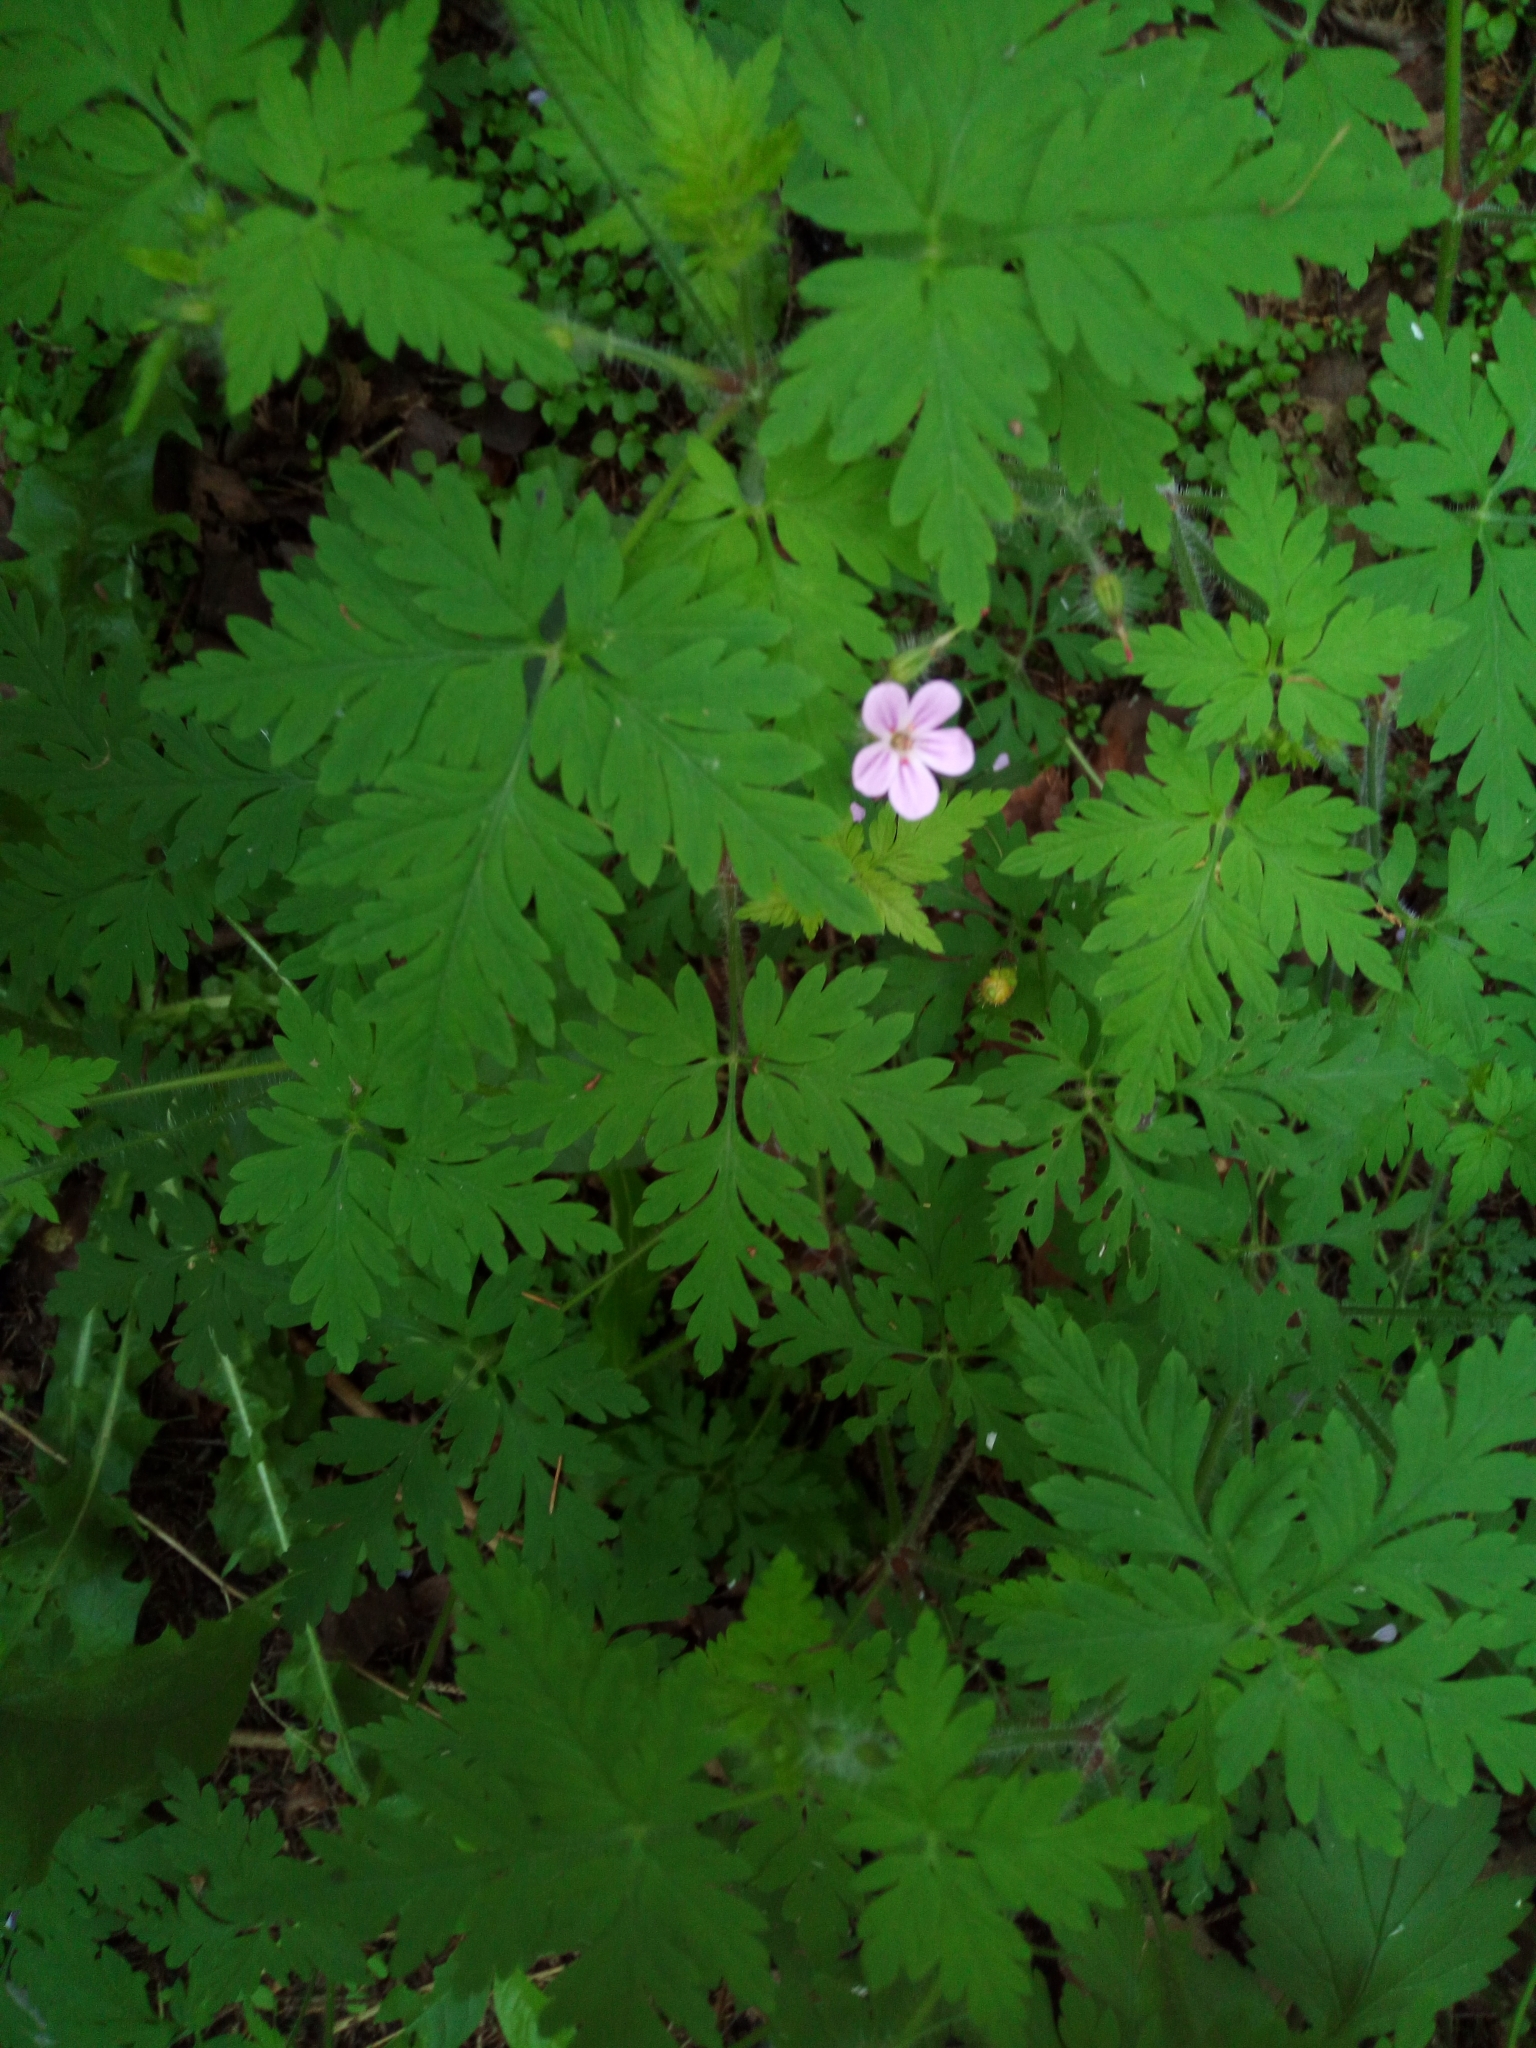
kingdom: Plantae
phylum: Tracheophyta
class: Magnoliopsida
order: Geraniales
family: Geraniaceae
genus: Geranium
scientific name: Geranium robertianum
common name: Herb-robert
